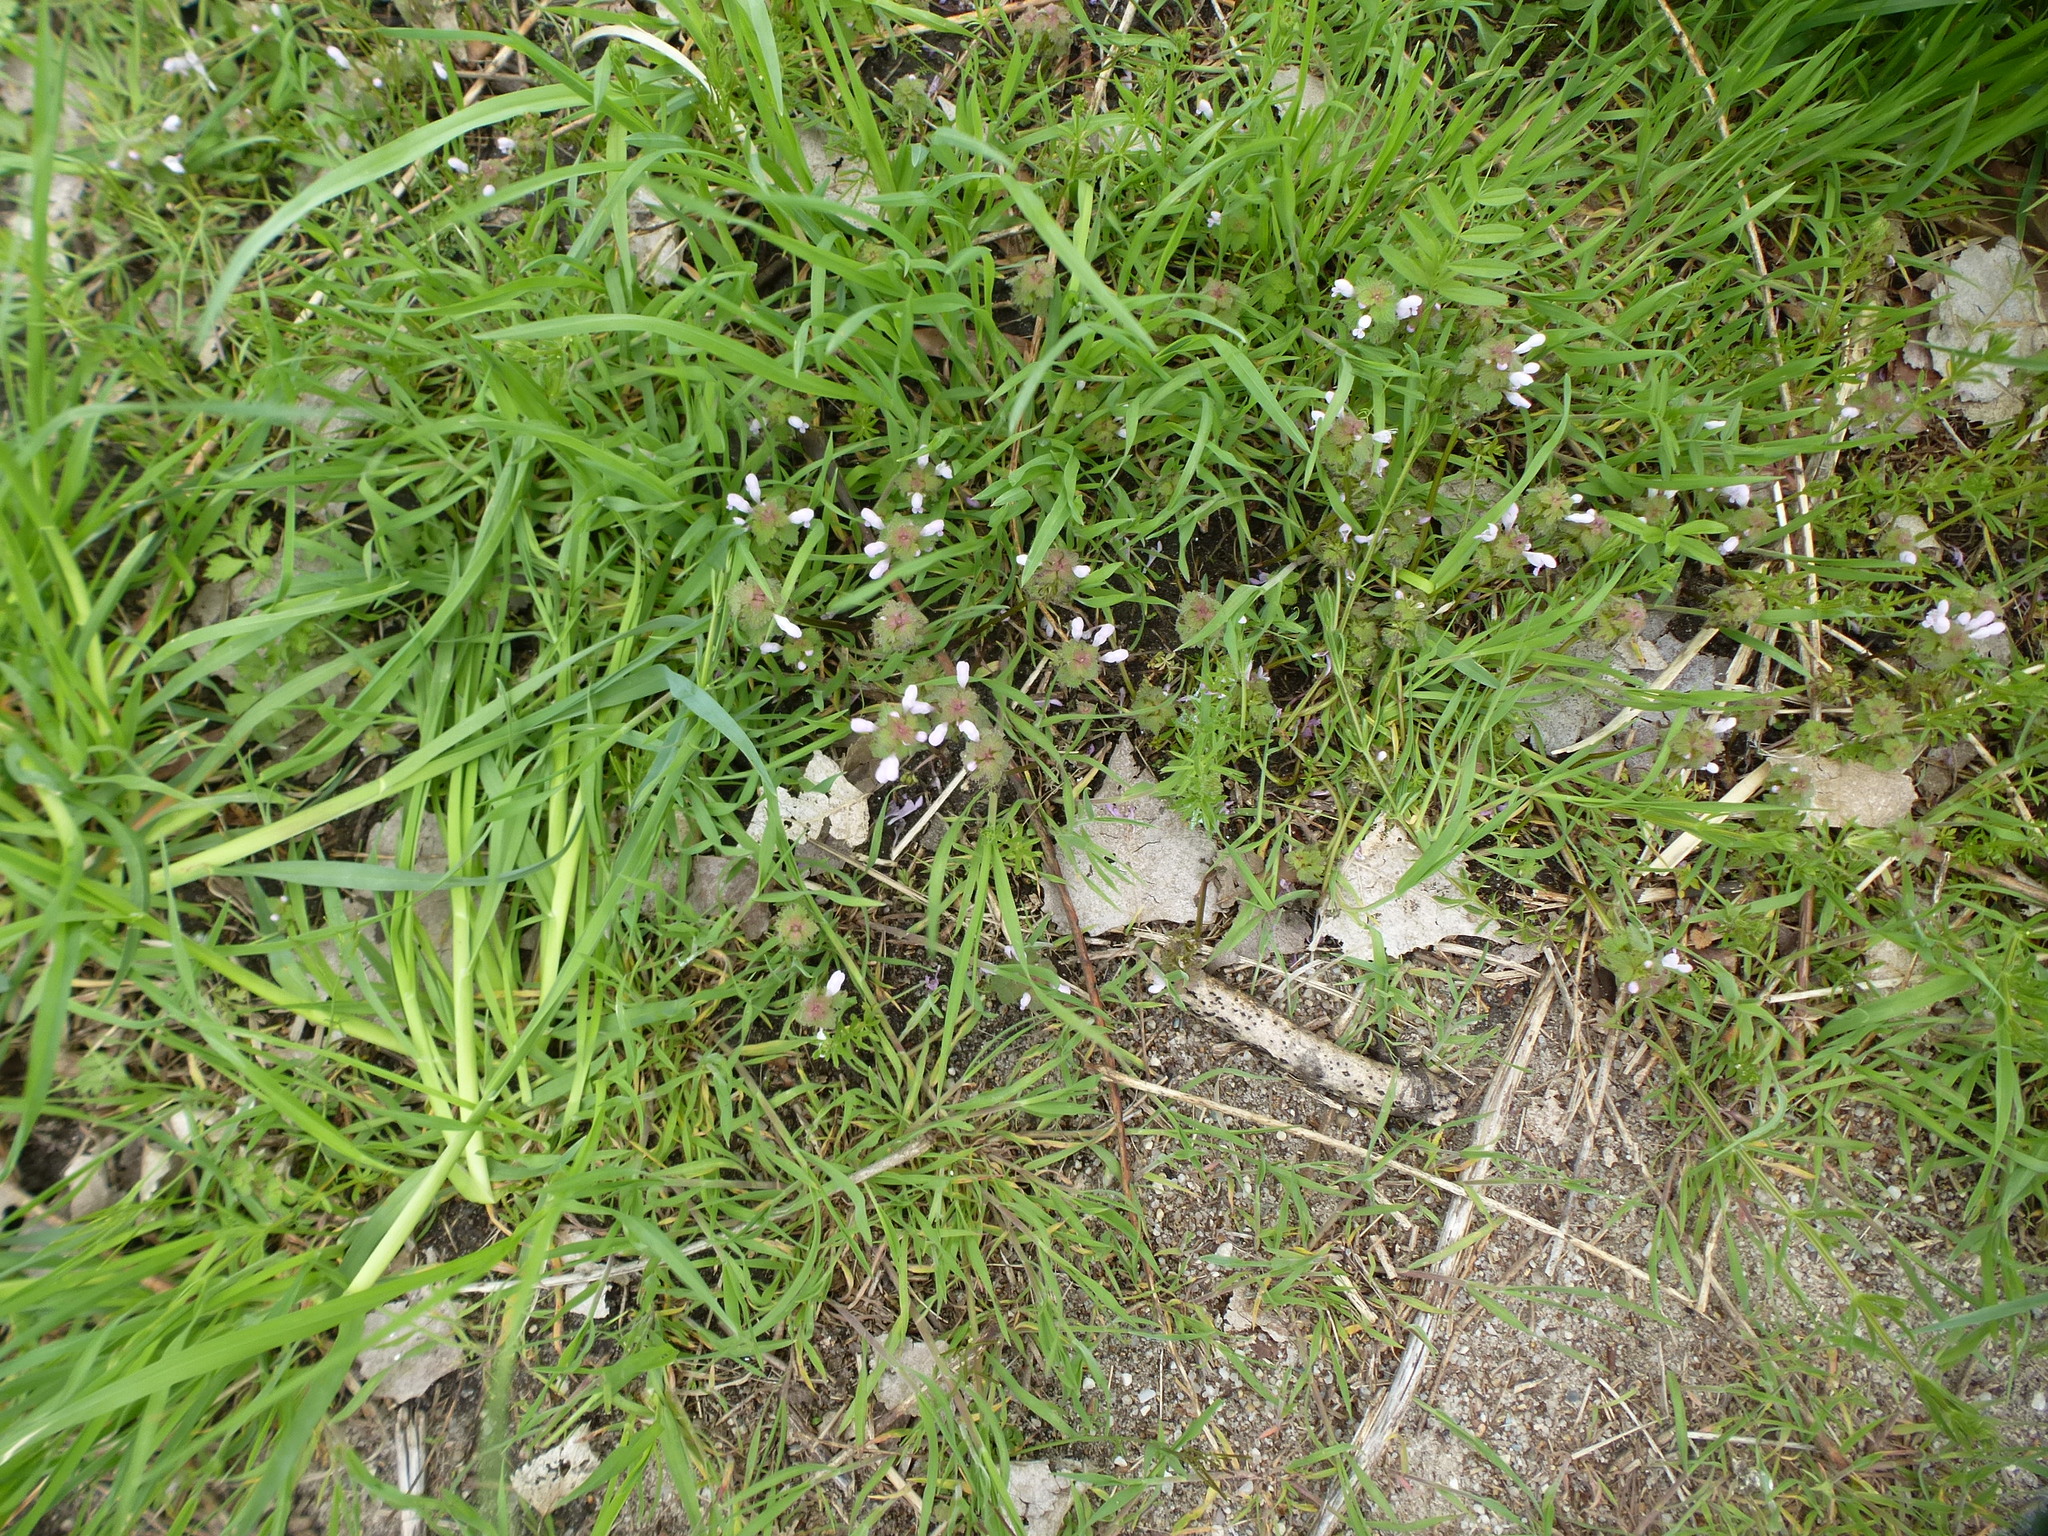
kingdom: Plantae
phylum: Tracheophyta
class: Magnoliopsida
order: Lamiales
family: Lamiaceae
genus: Lamium
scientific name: Lamium purpureum
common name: Red dead-nettle
